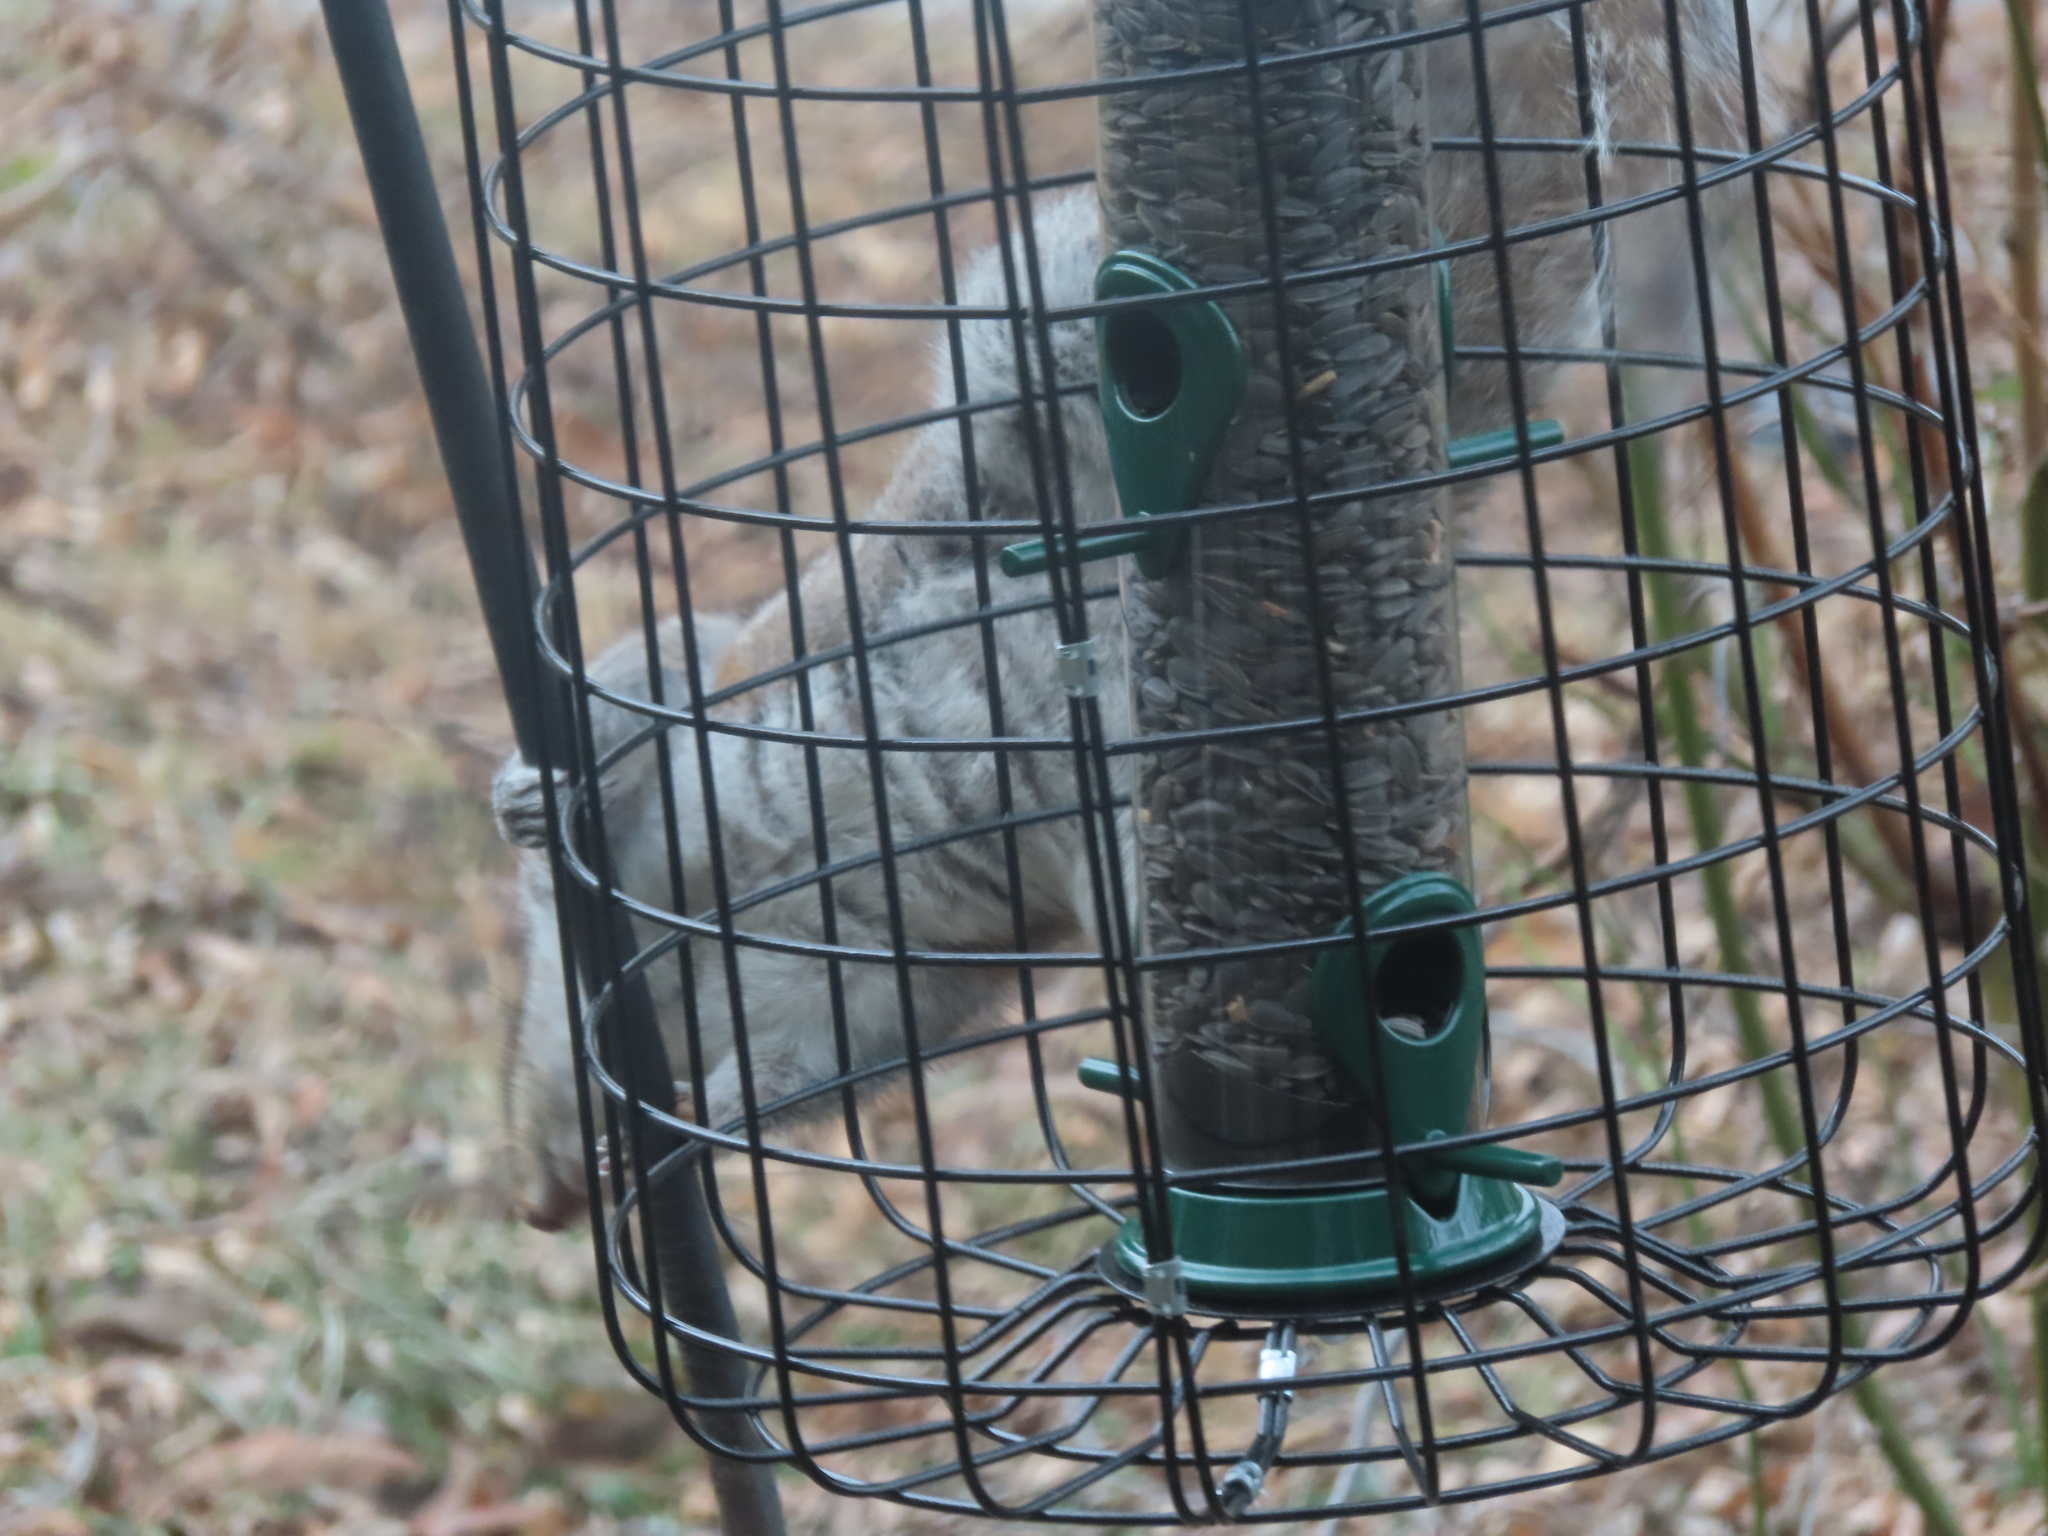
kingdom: Animalia
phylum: Chordata
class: Mammalia
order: Rodentia
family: Sciuridae
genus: Sciurus
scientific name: Sciurus carolinensis
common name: Eastern gray squirrel
